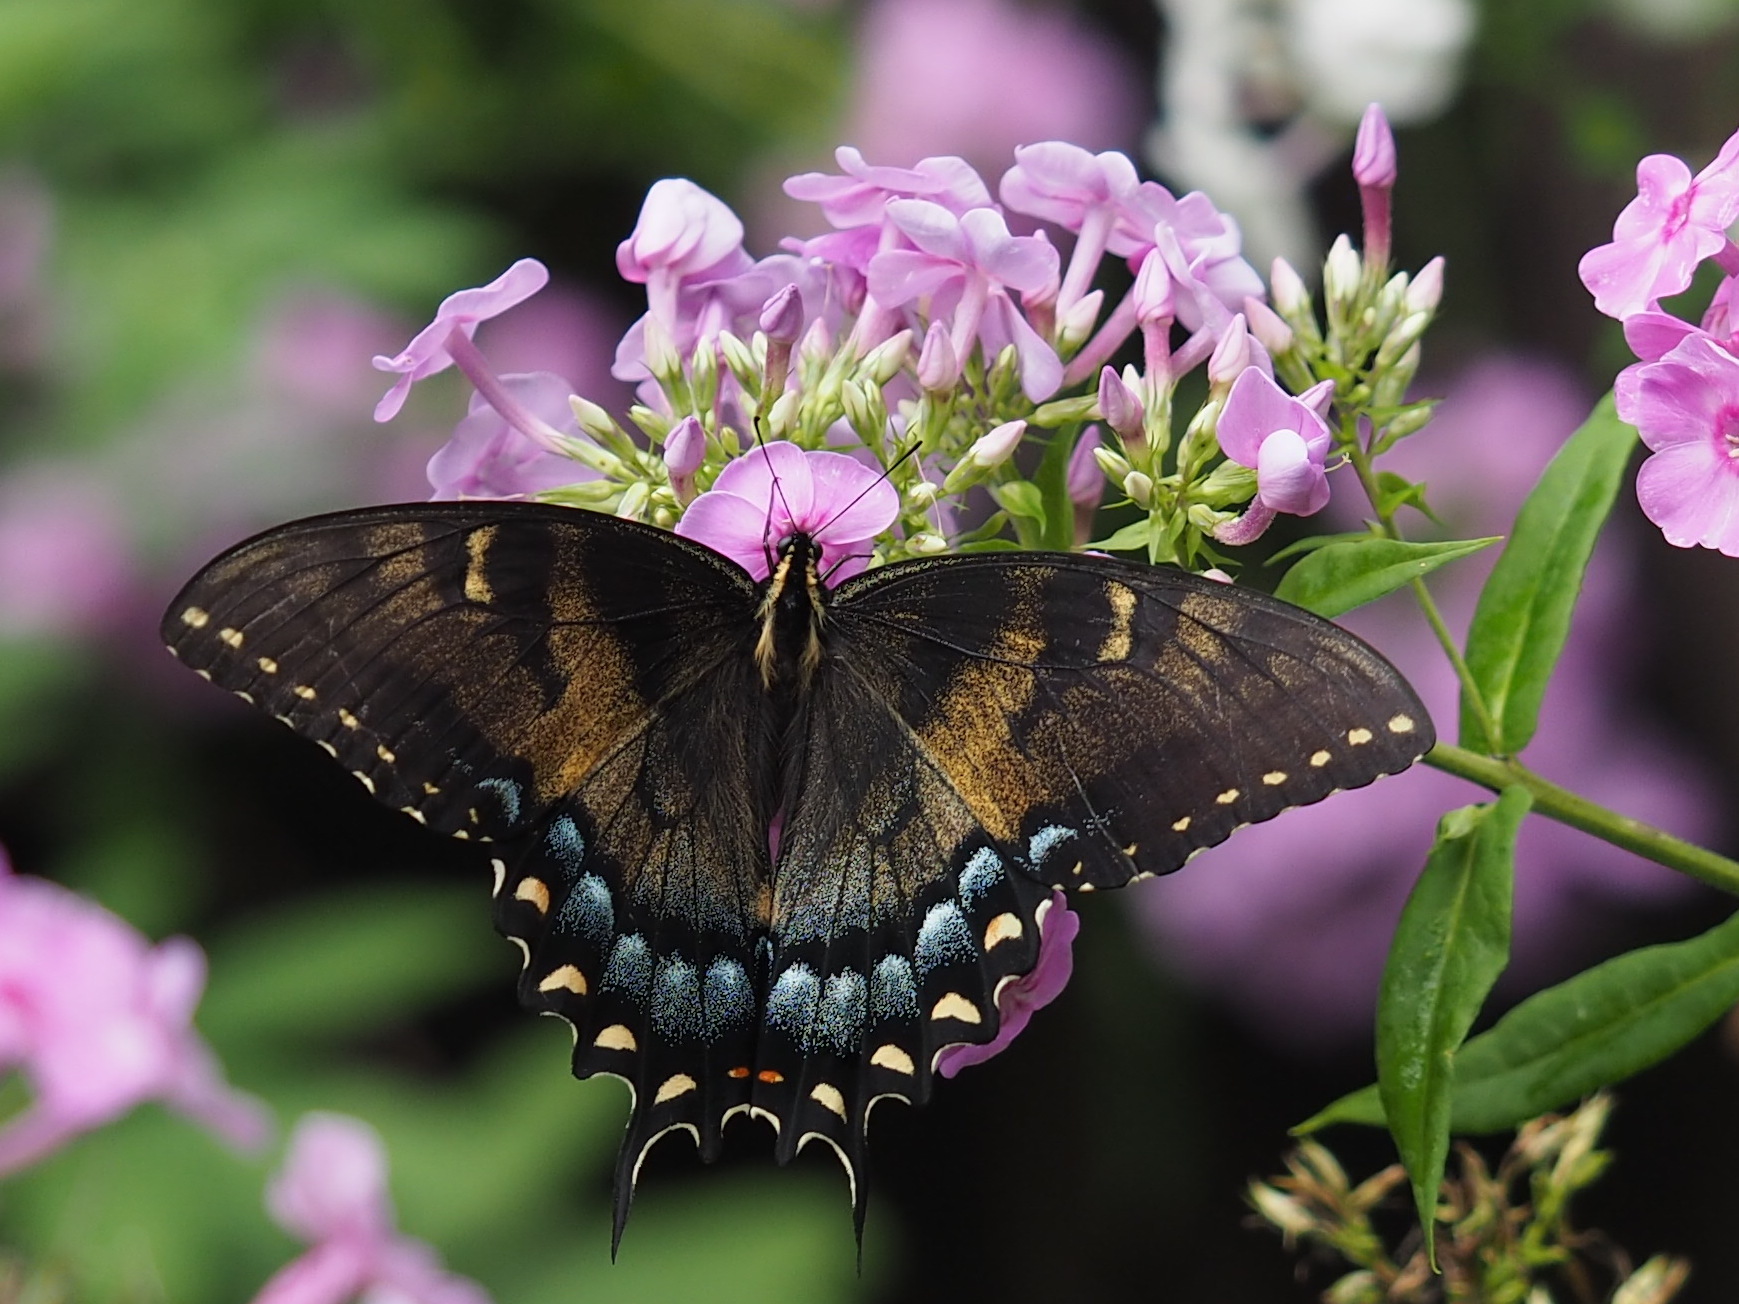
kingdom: Animalia
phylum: Arthropoda
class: Insecta
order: Lepidoptera
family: Papilionidae
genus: Papilio
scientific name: Papilio glaucus
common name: Tiger swallowtail
